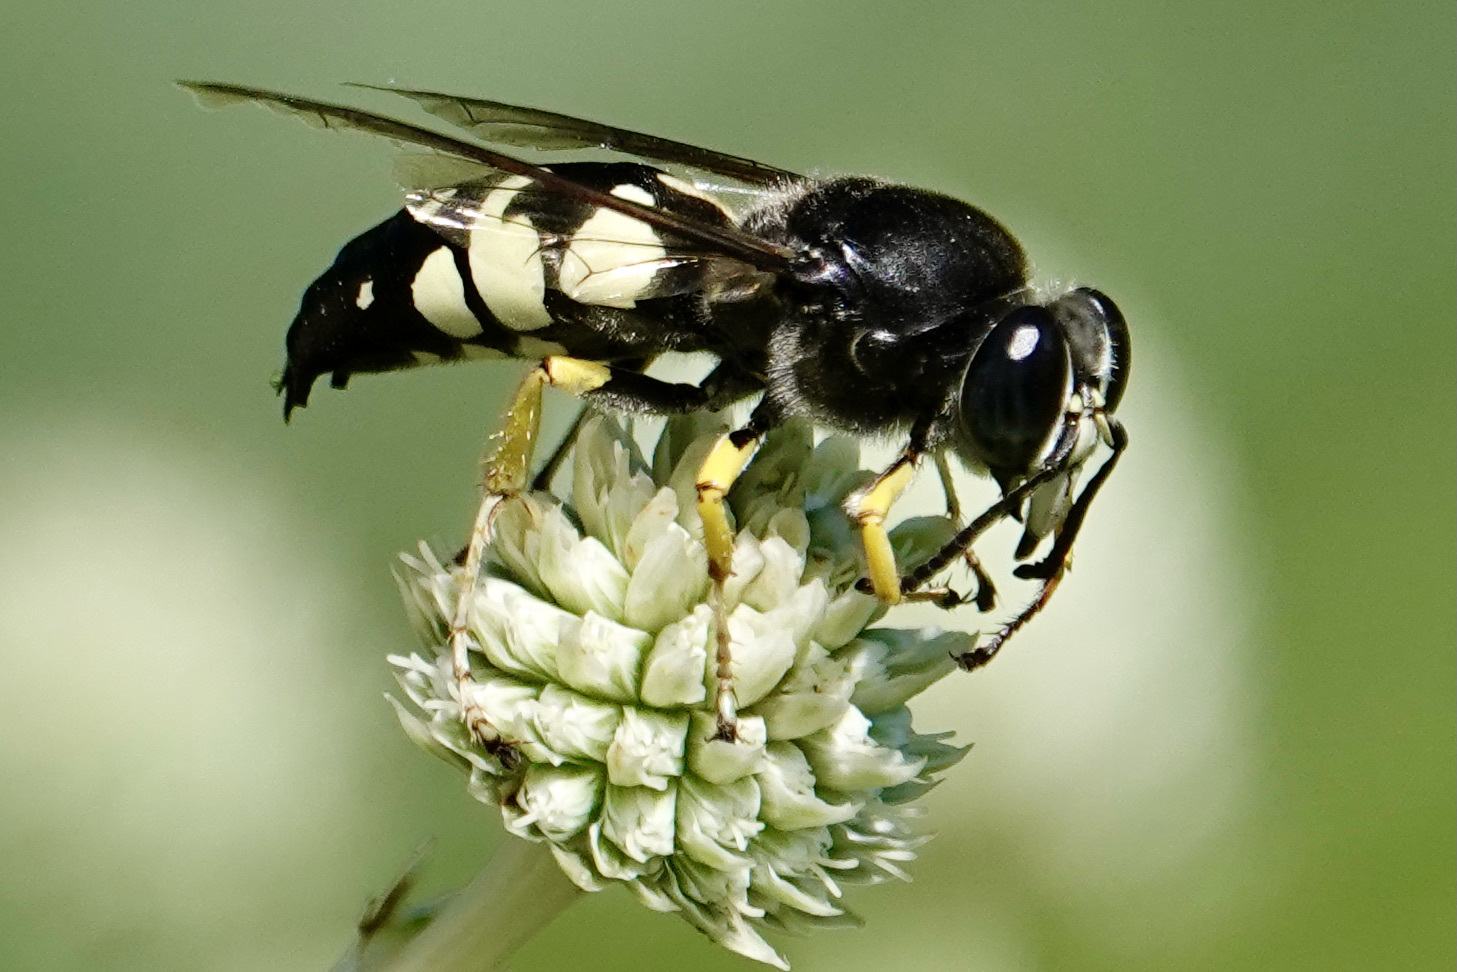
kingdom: Animalia
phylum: Arthropoda
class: Insecta
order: Hymenoptera
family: Crabronidae
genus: Stictia
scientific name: Stictia carolina
